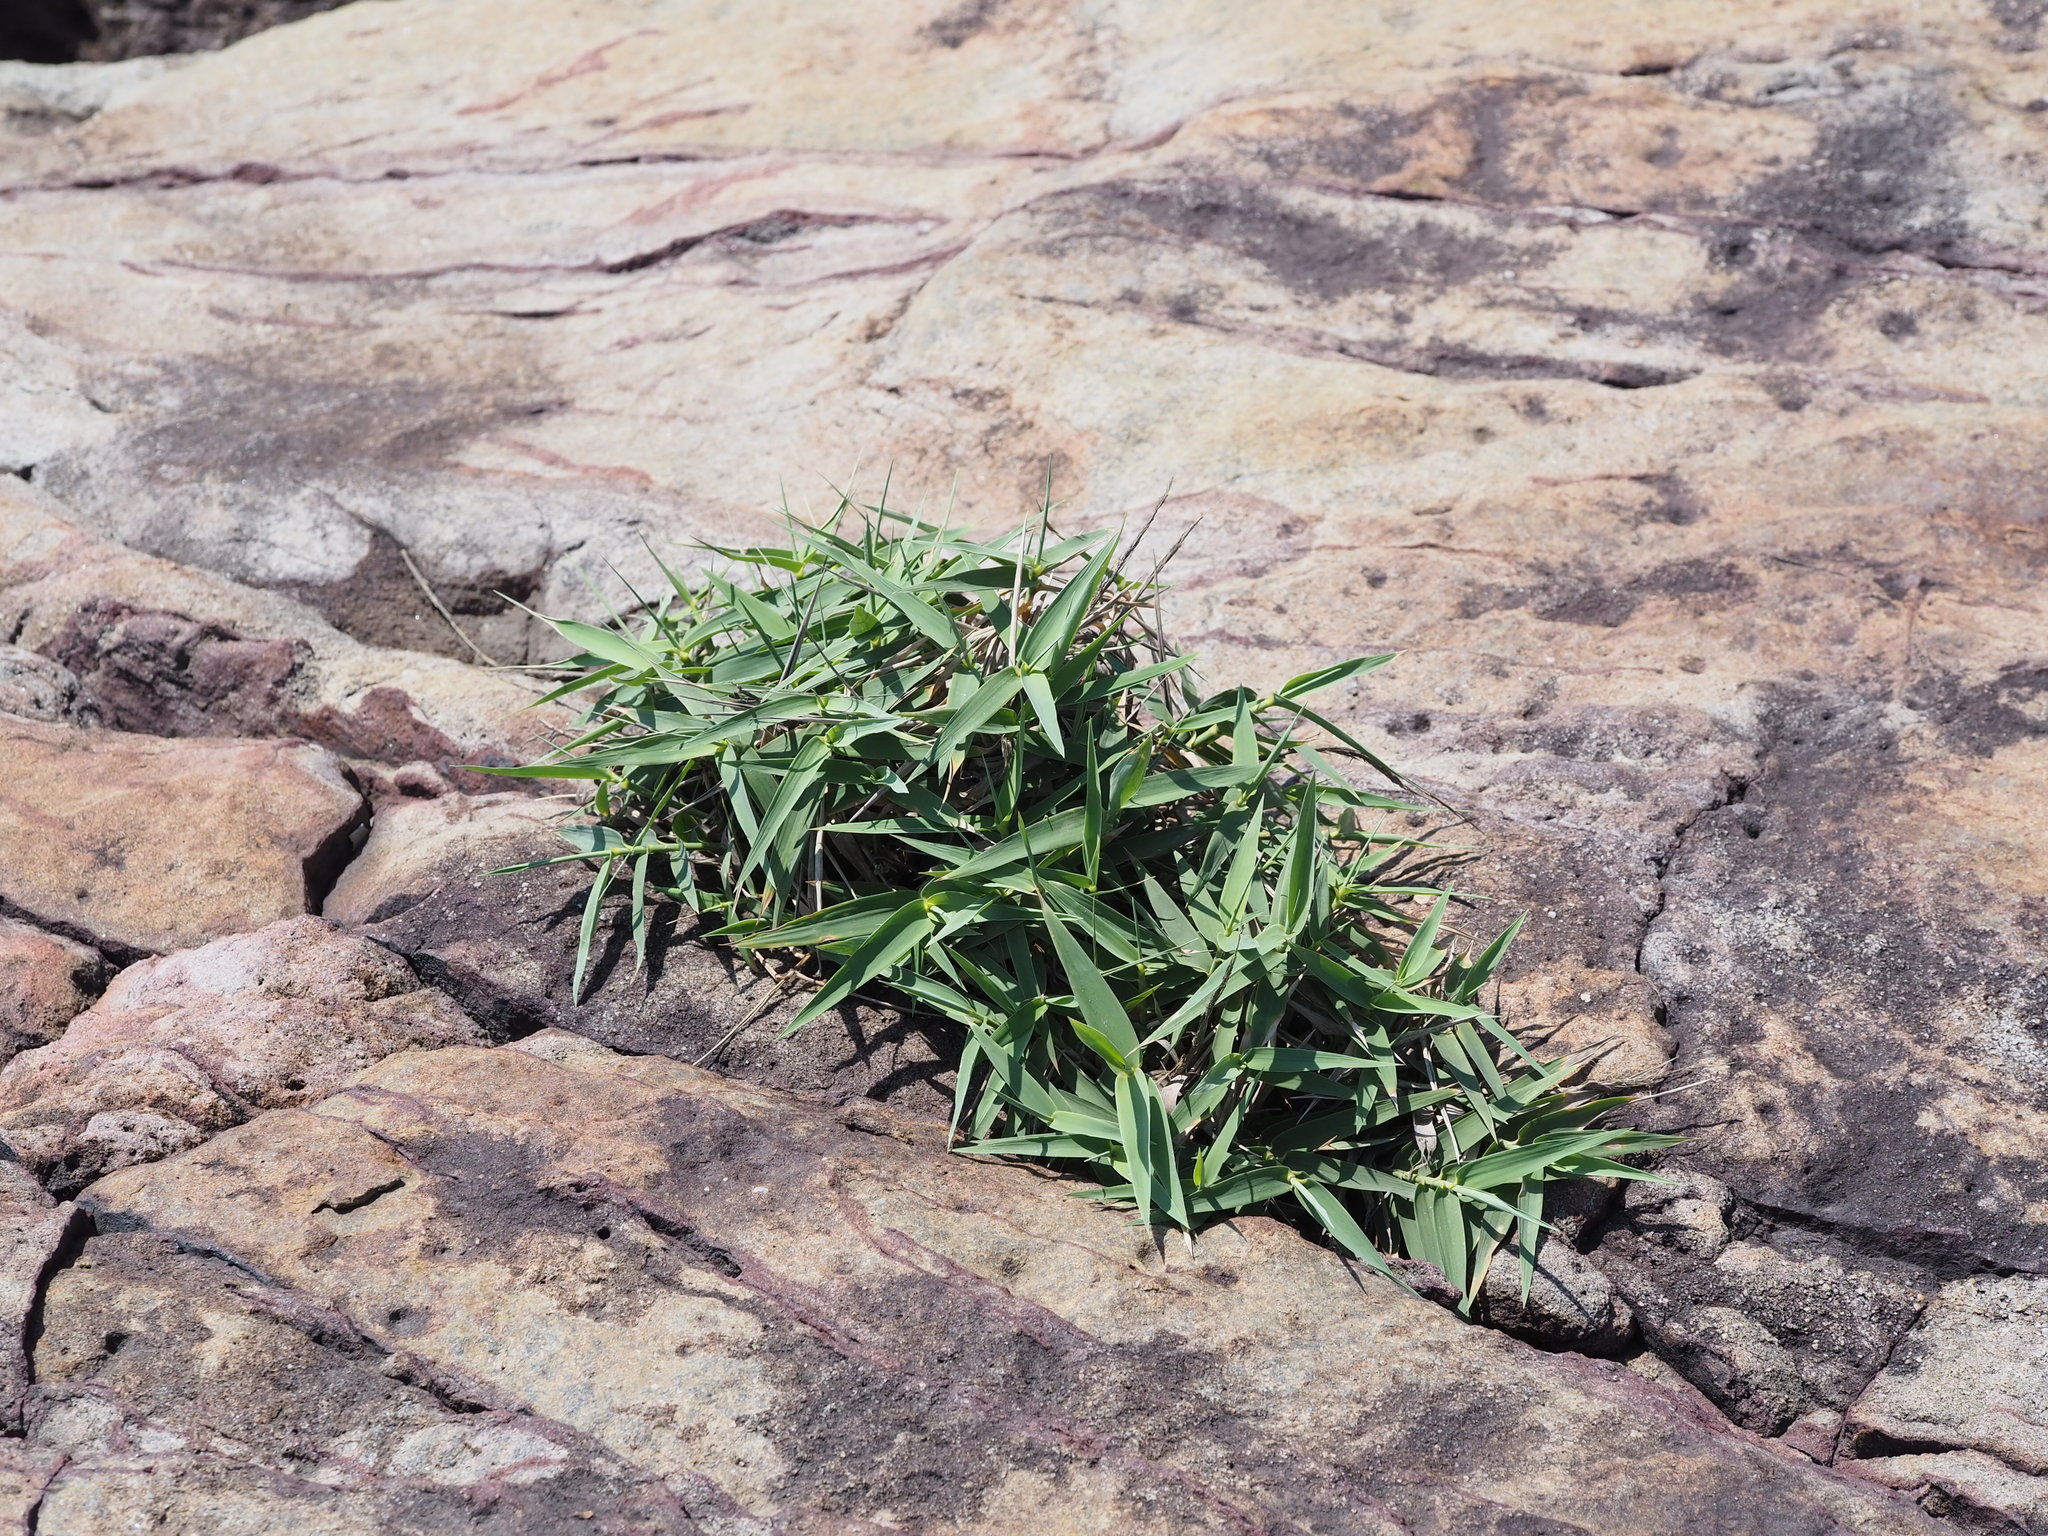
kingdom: Plantae
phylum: Tracheophyta
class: Liliopsida
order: Poales
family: Poaceae
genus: Arundo
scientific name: Arundo formosana
